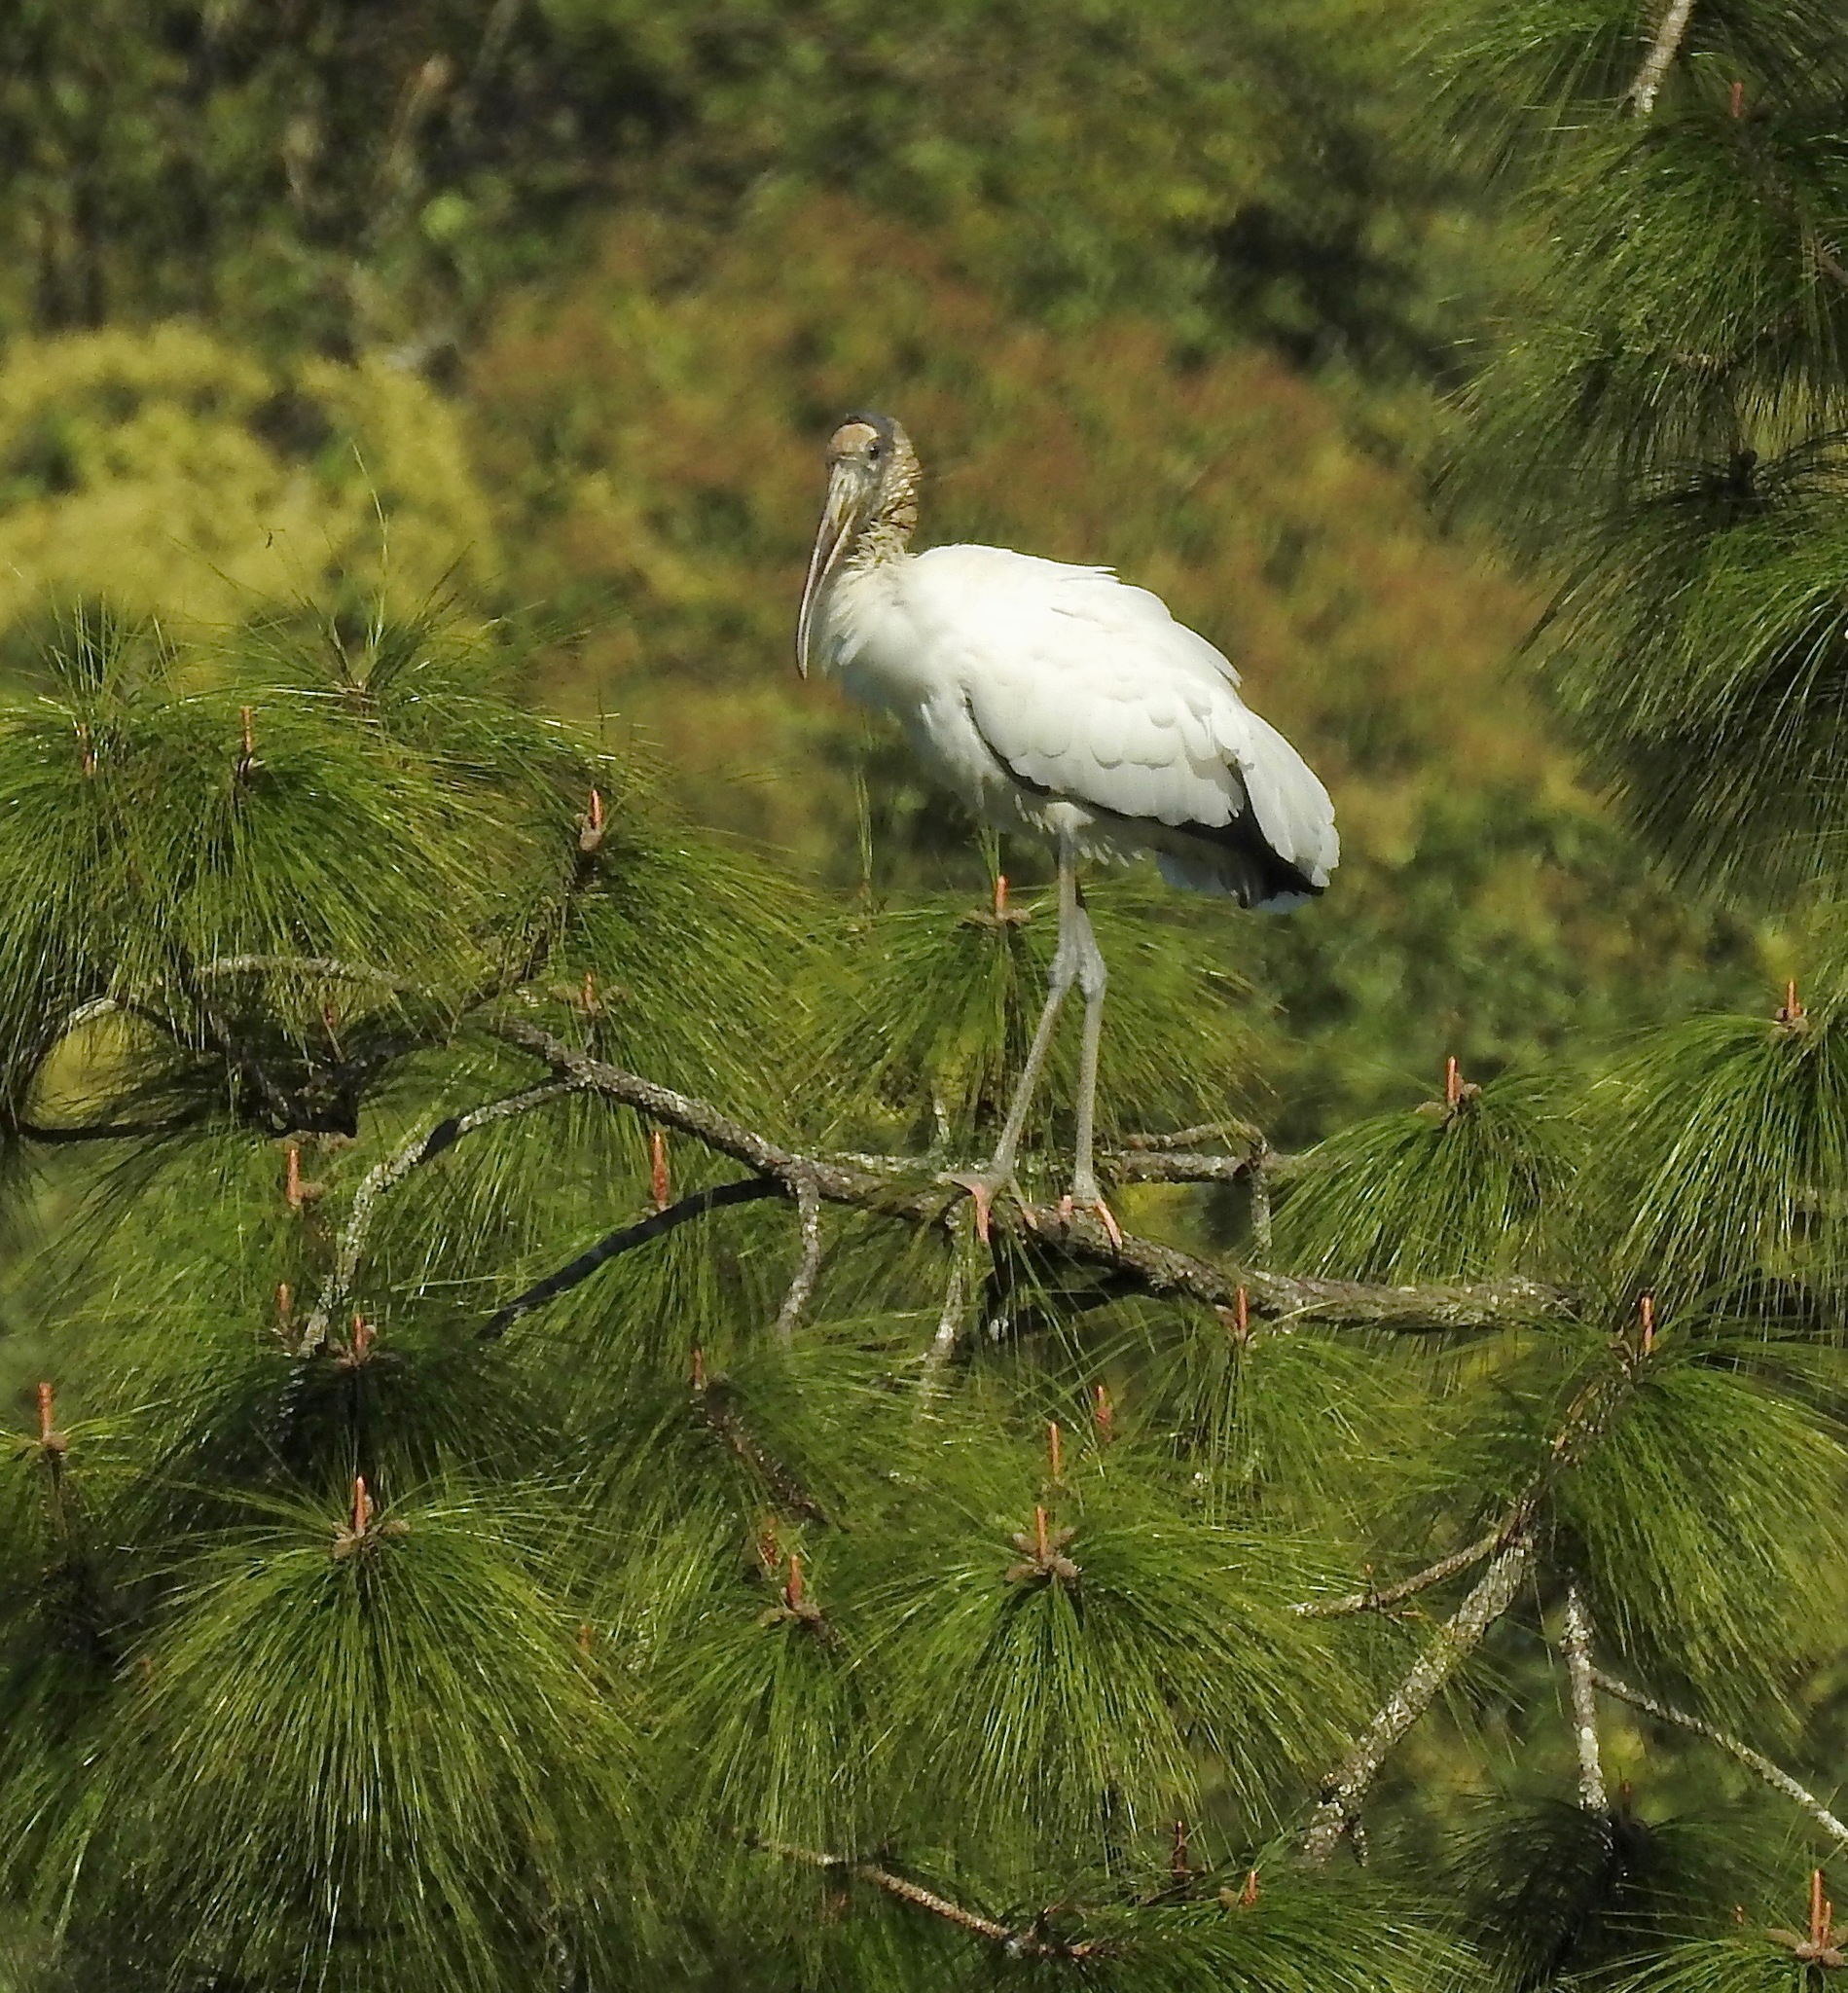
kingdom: Animalia
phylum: Chordata
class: Aves
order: Ciconiiformes
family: Ciconiidae
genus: Mycteria
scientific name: Mycteria americana
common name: Wood stork
